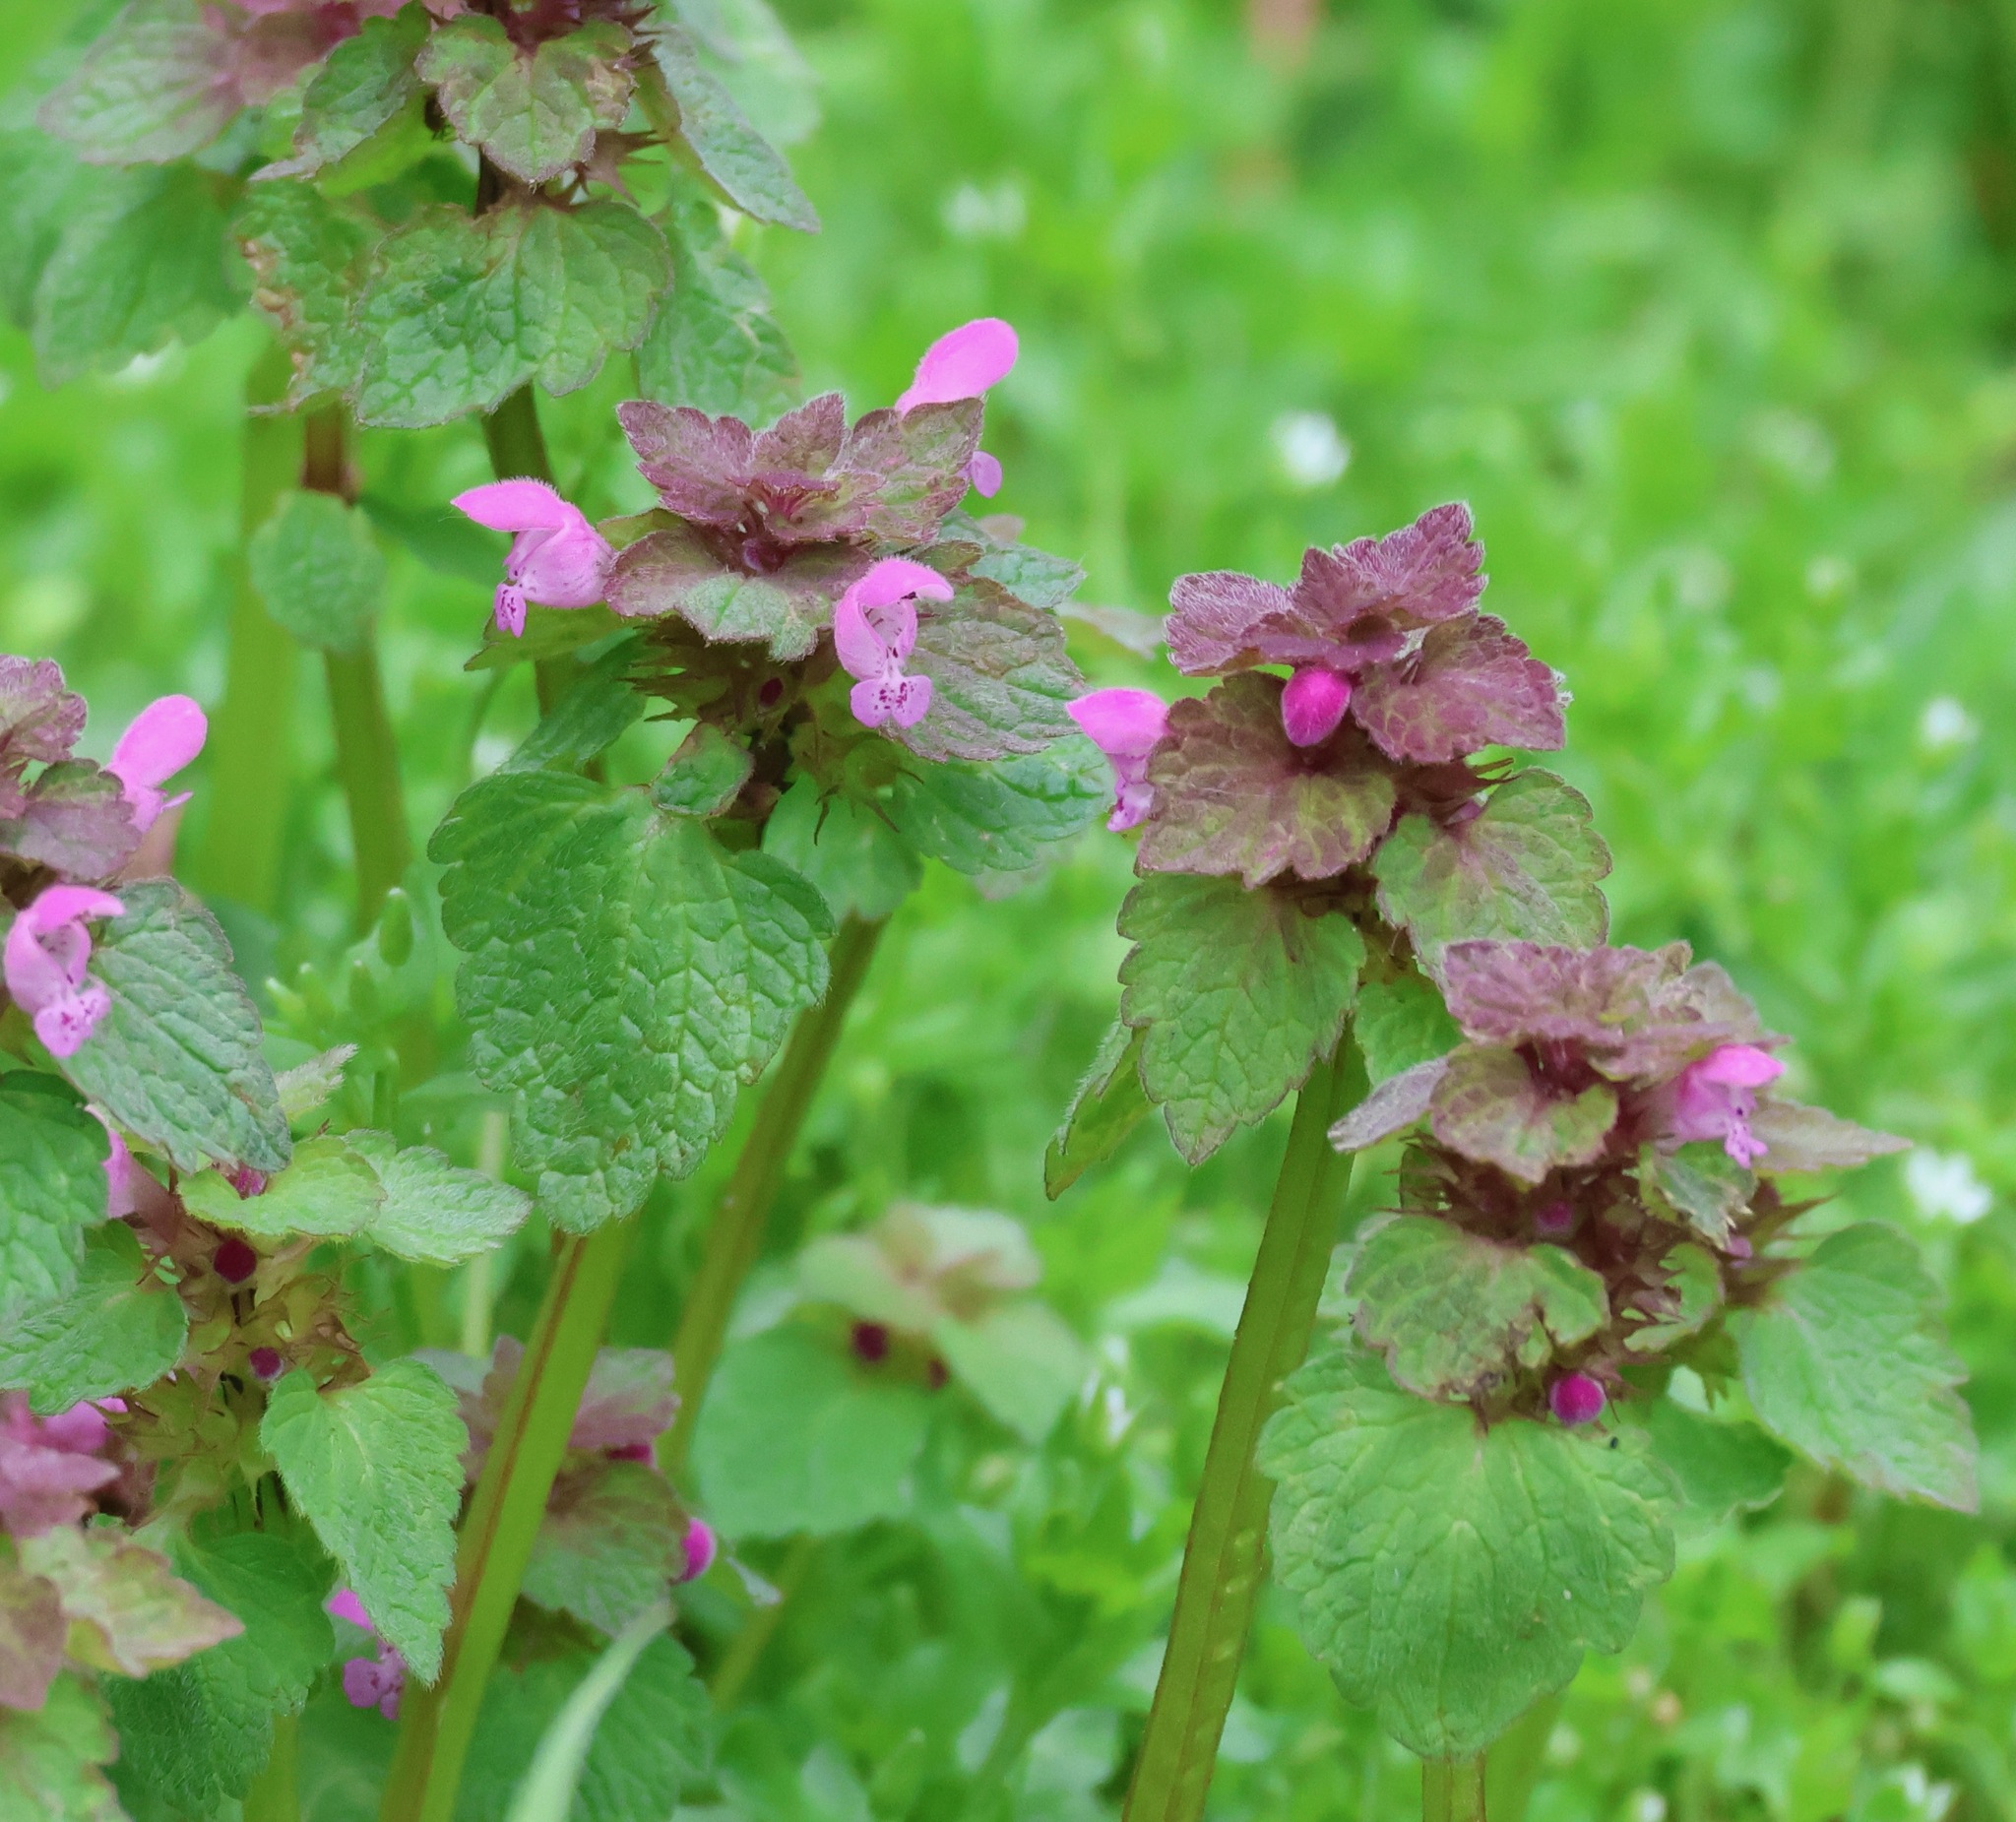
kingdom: Plantae
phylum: Tracheophyta
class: Magnoliopsida
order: Lamiales
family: Lamiaceae
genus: Lamium
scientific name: Lamium purpureum
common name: Red dead-nettle
